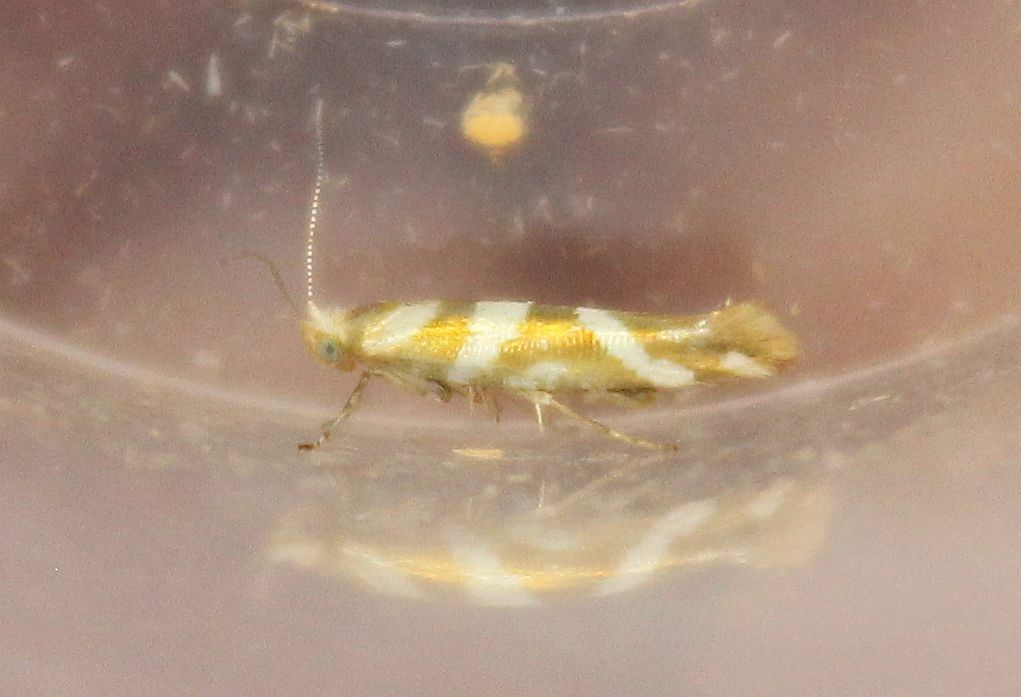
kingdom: Animalia
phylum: Arthropoda
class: Insecta
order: Lepidoptera
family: Argyresthiidae
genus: Argyresthia
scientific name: Argyresthia goedartella
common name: Golden argent
